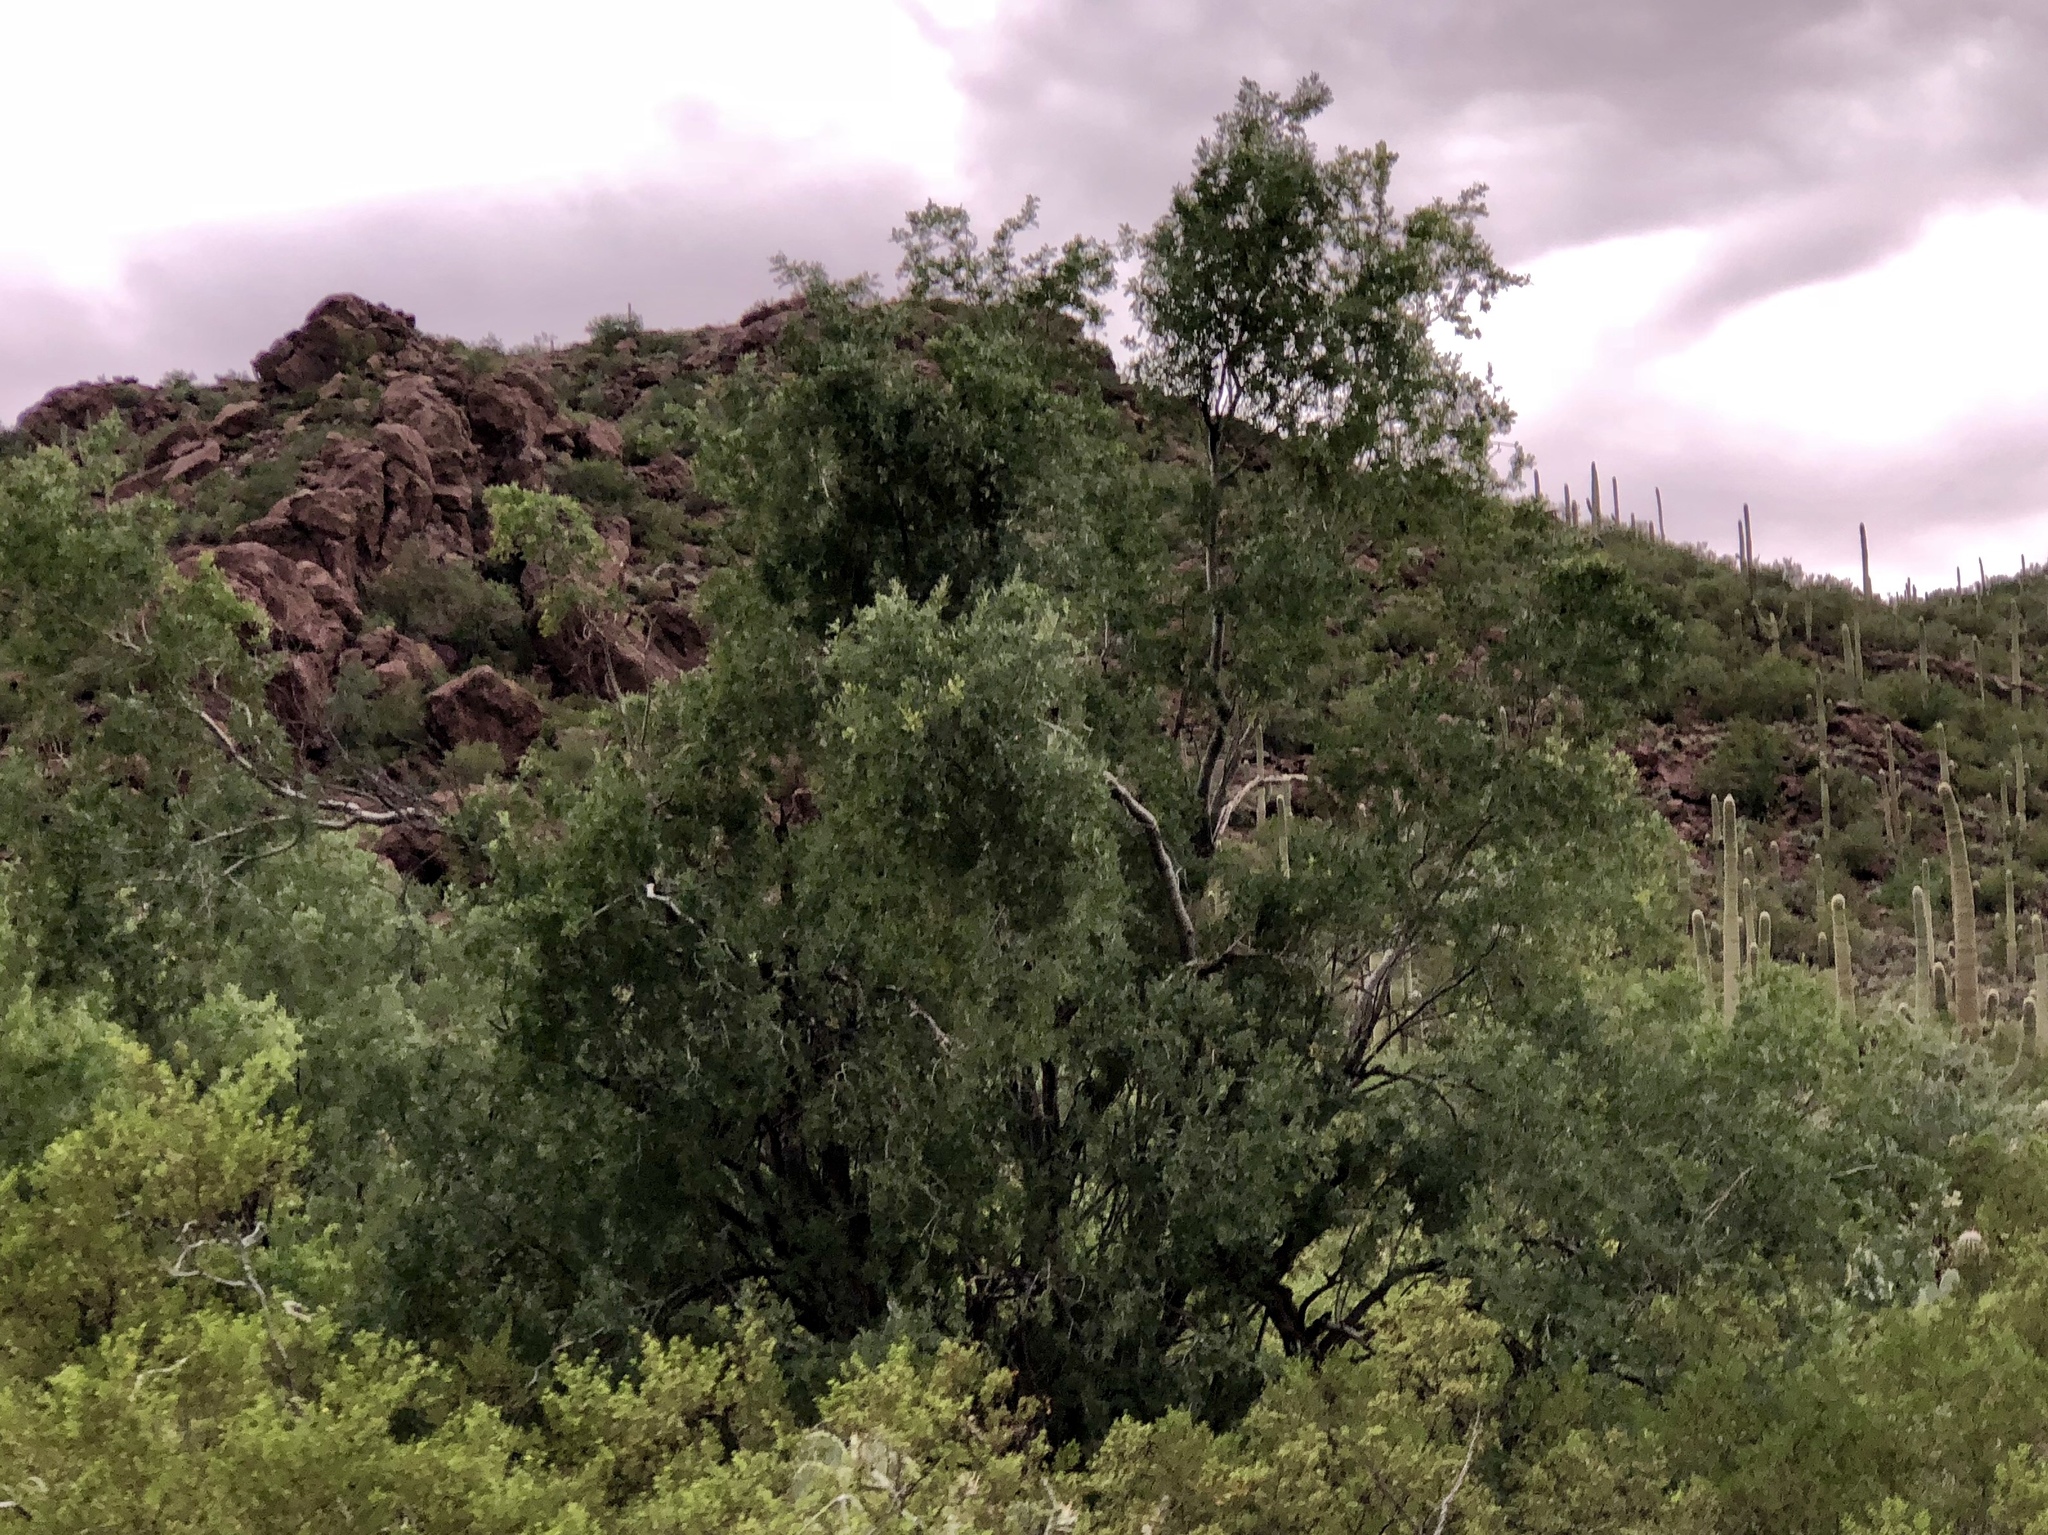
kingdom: Plantae
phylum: Tracheophyta
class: Magnoliopsida
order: Fabales
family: Fabaceae
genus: Olneya
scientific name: Olneya tesota
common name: Desert ironwood
